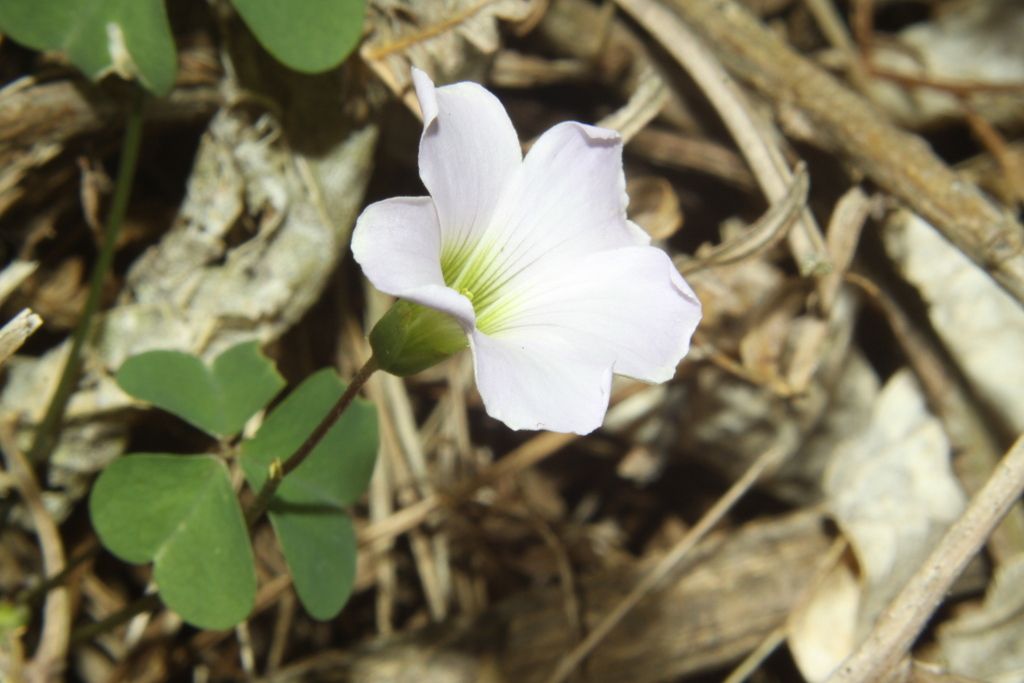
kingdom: Plantae
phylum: Tracheophyta
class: Magnoliopsida
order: Oxalidales
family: Oxalidaceae
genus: Oxalis
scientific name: Oxalis incarnata
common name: Pale pink-sorrel
